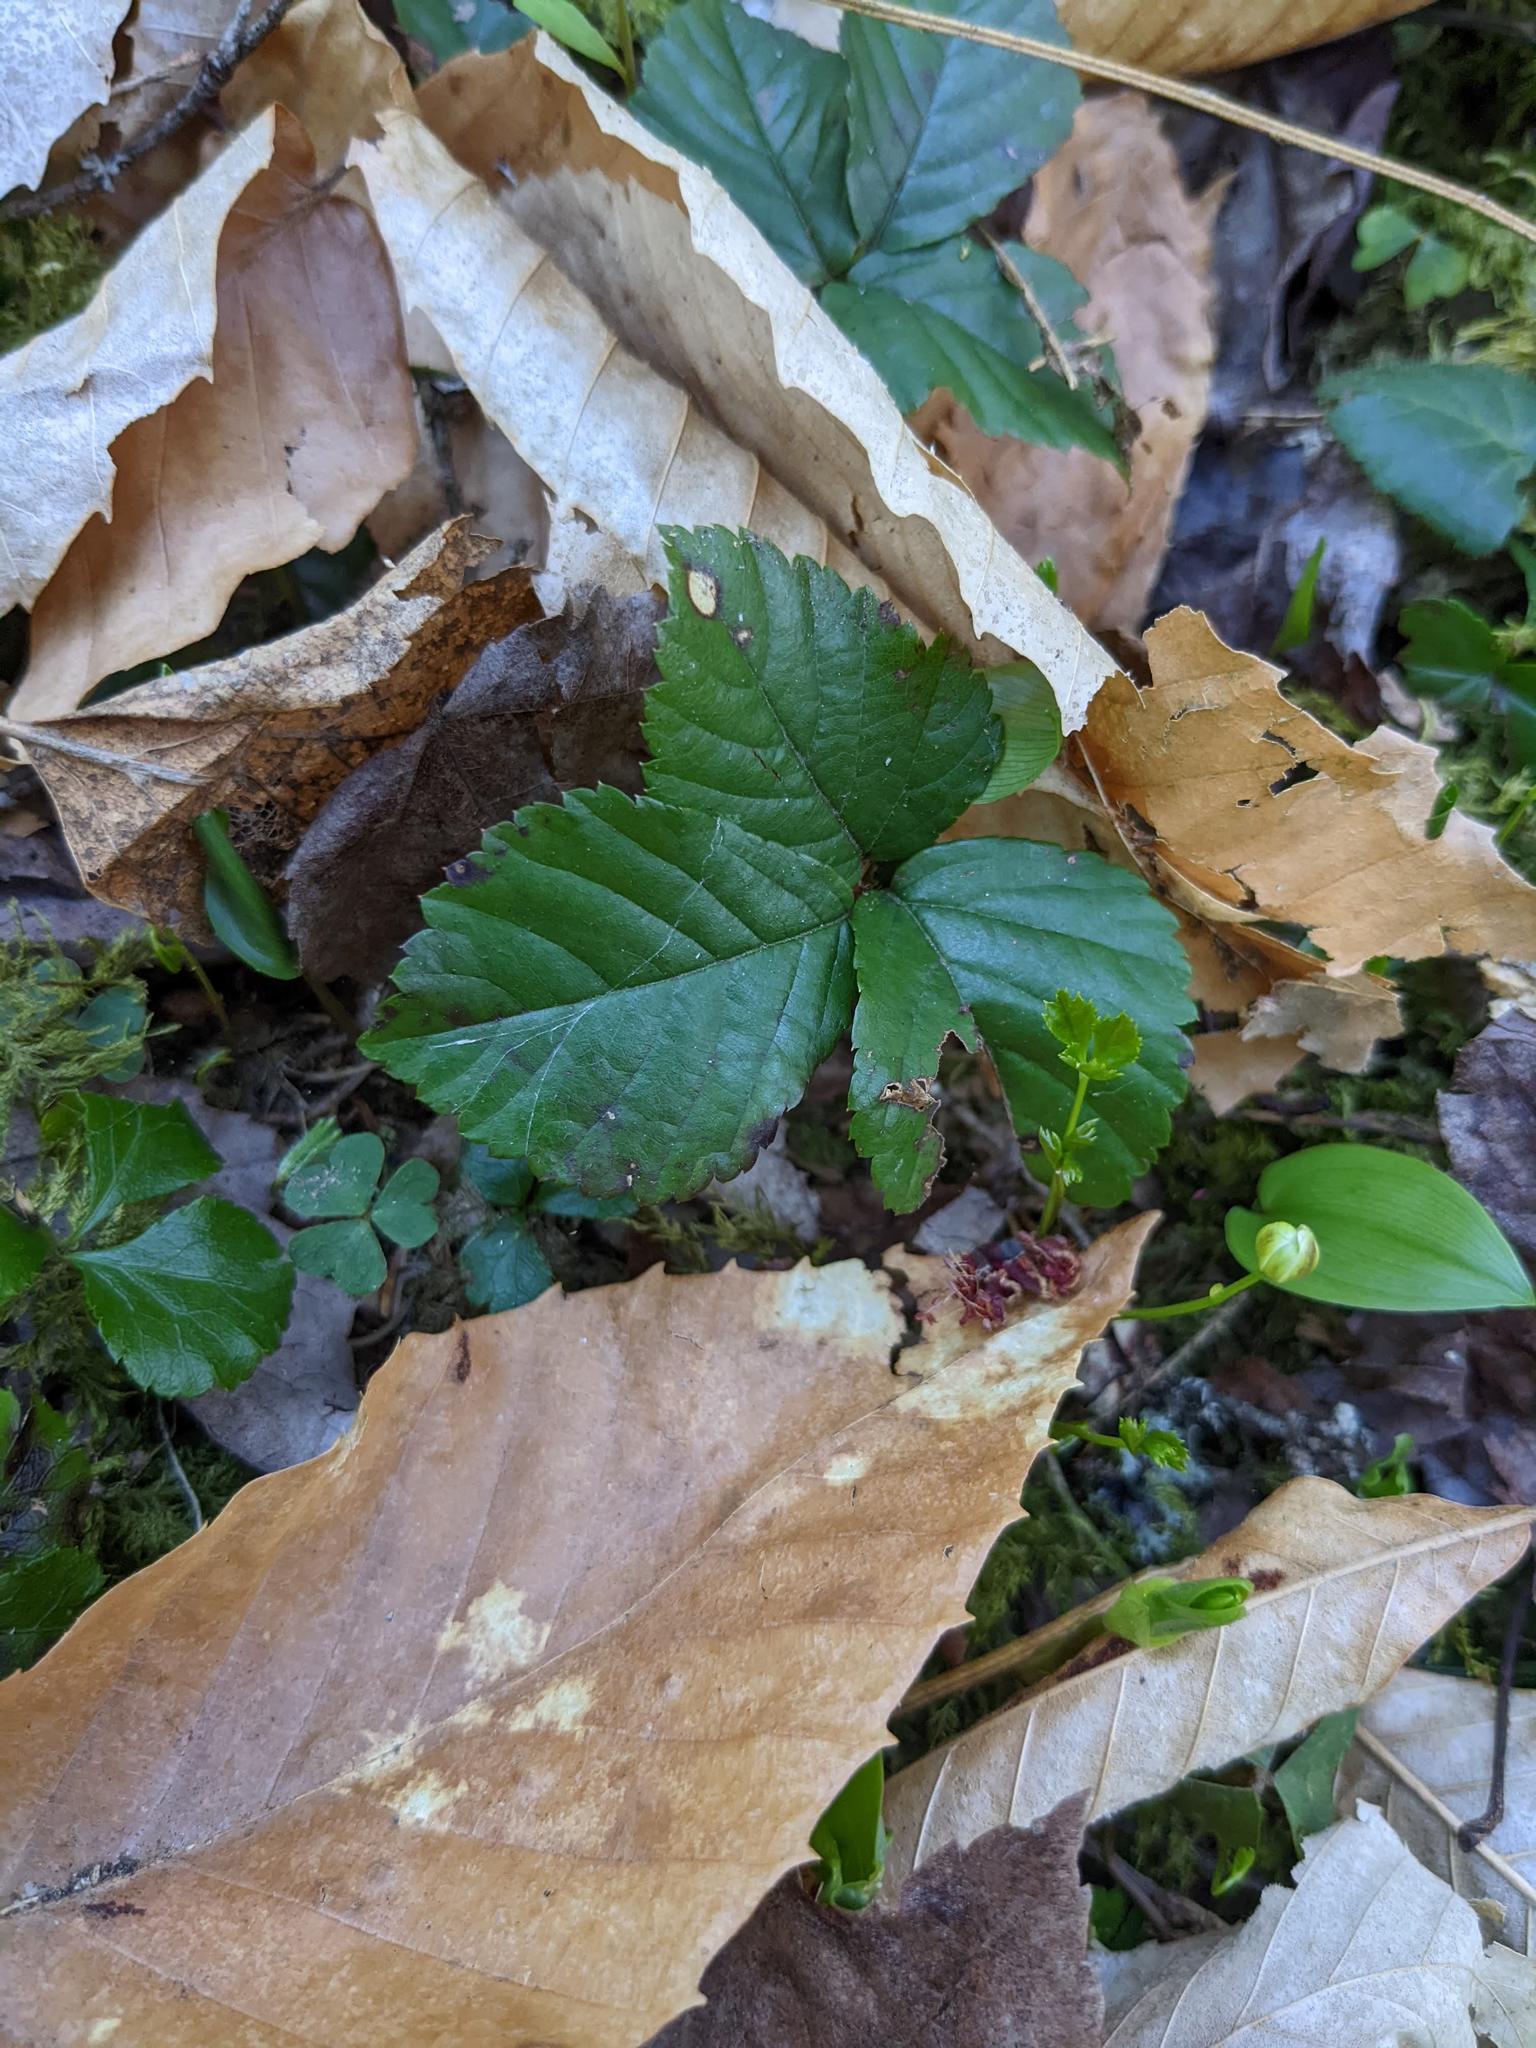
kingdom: Plantae
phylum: Tracheophyta
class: Magnoliopsida
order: Fagales
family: Fagaceae
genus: Fagus
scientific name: Fagus grandifolia
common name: American beech
